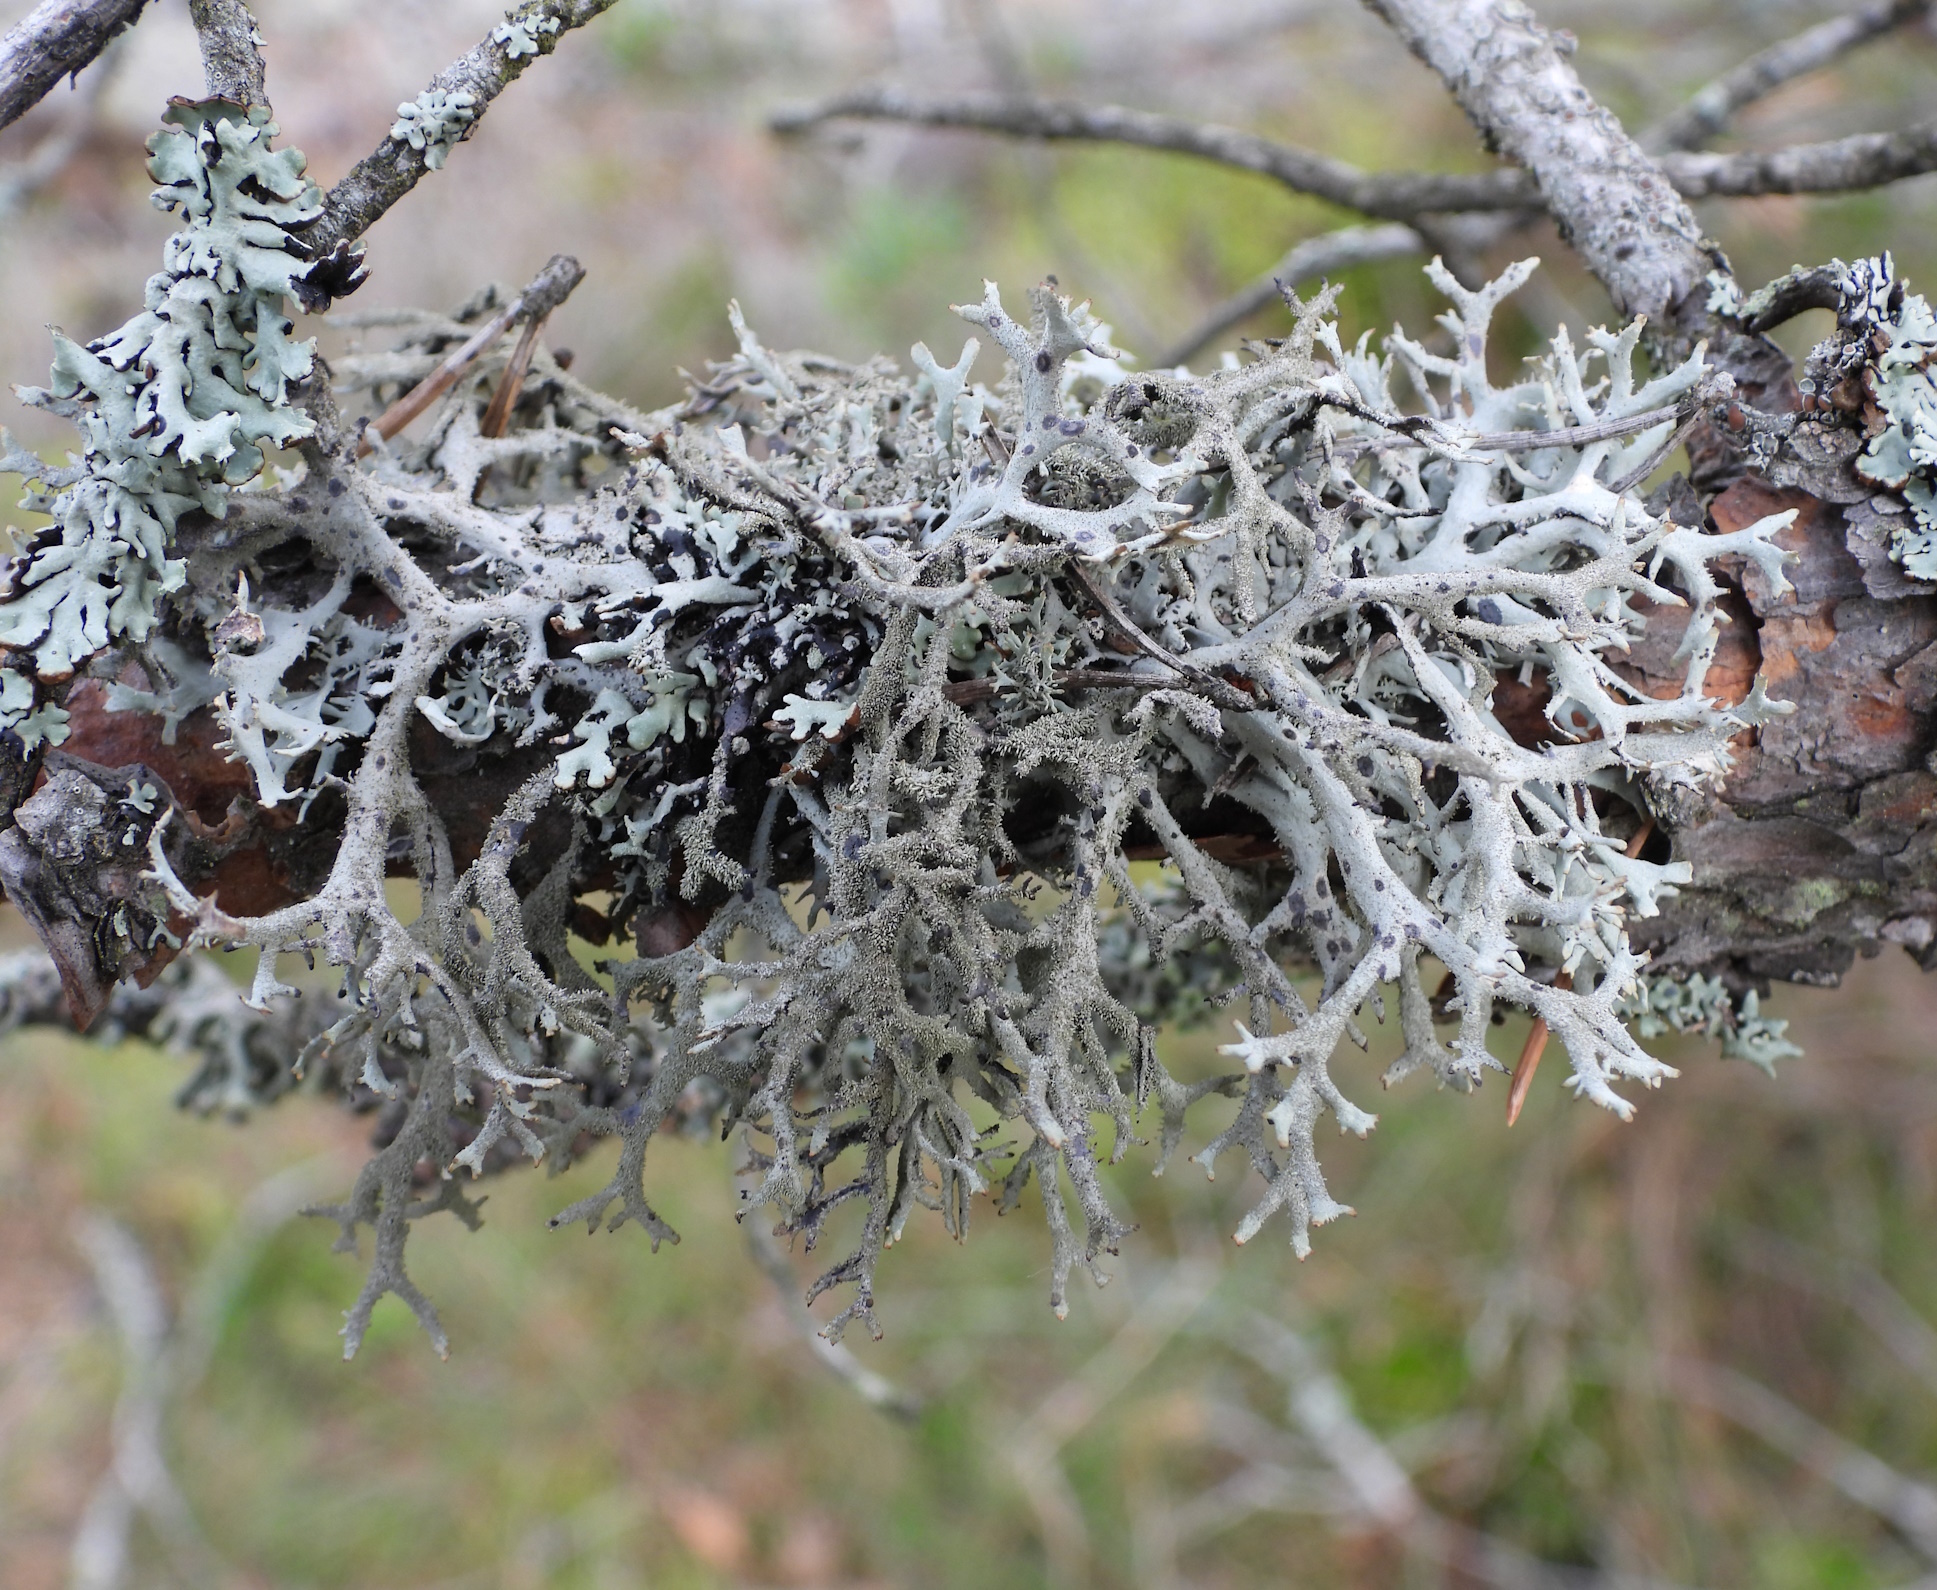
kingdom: Fungi
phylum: Ascomycota
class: Lecanoromycetes
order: Lecanorales
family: Parmeliaceae
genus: Pseudevernia
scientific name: Pseudevernia furfuracea
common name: Tree moss
